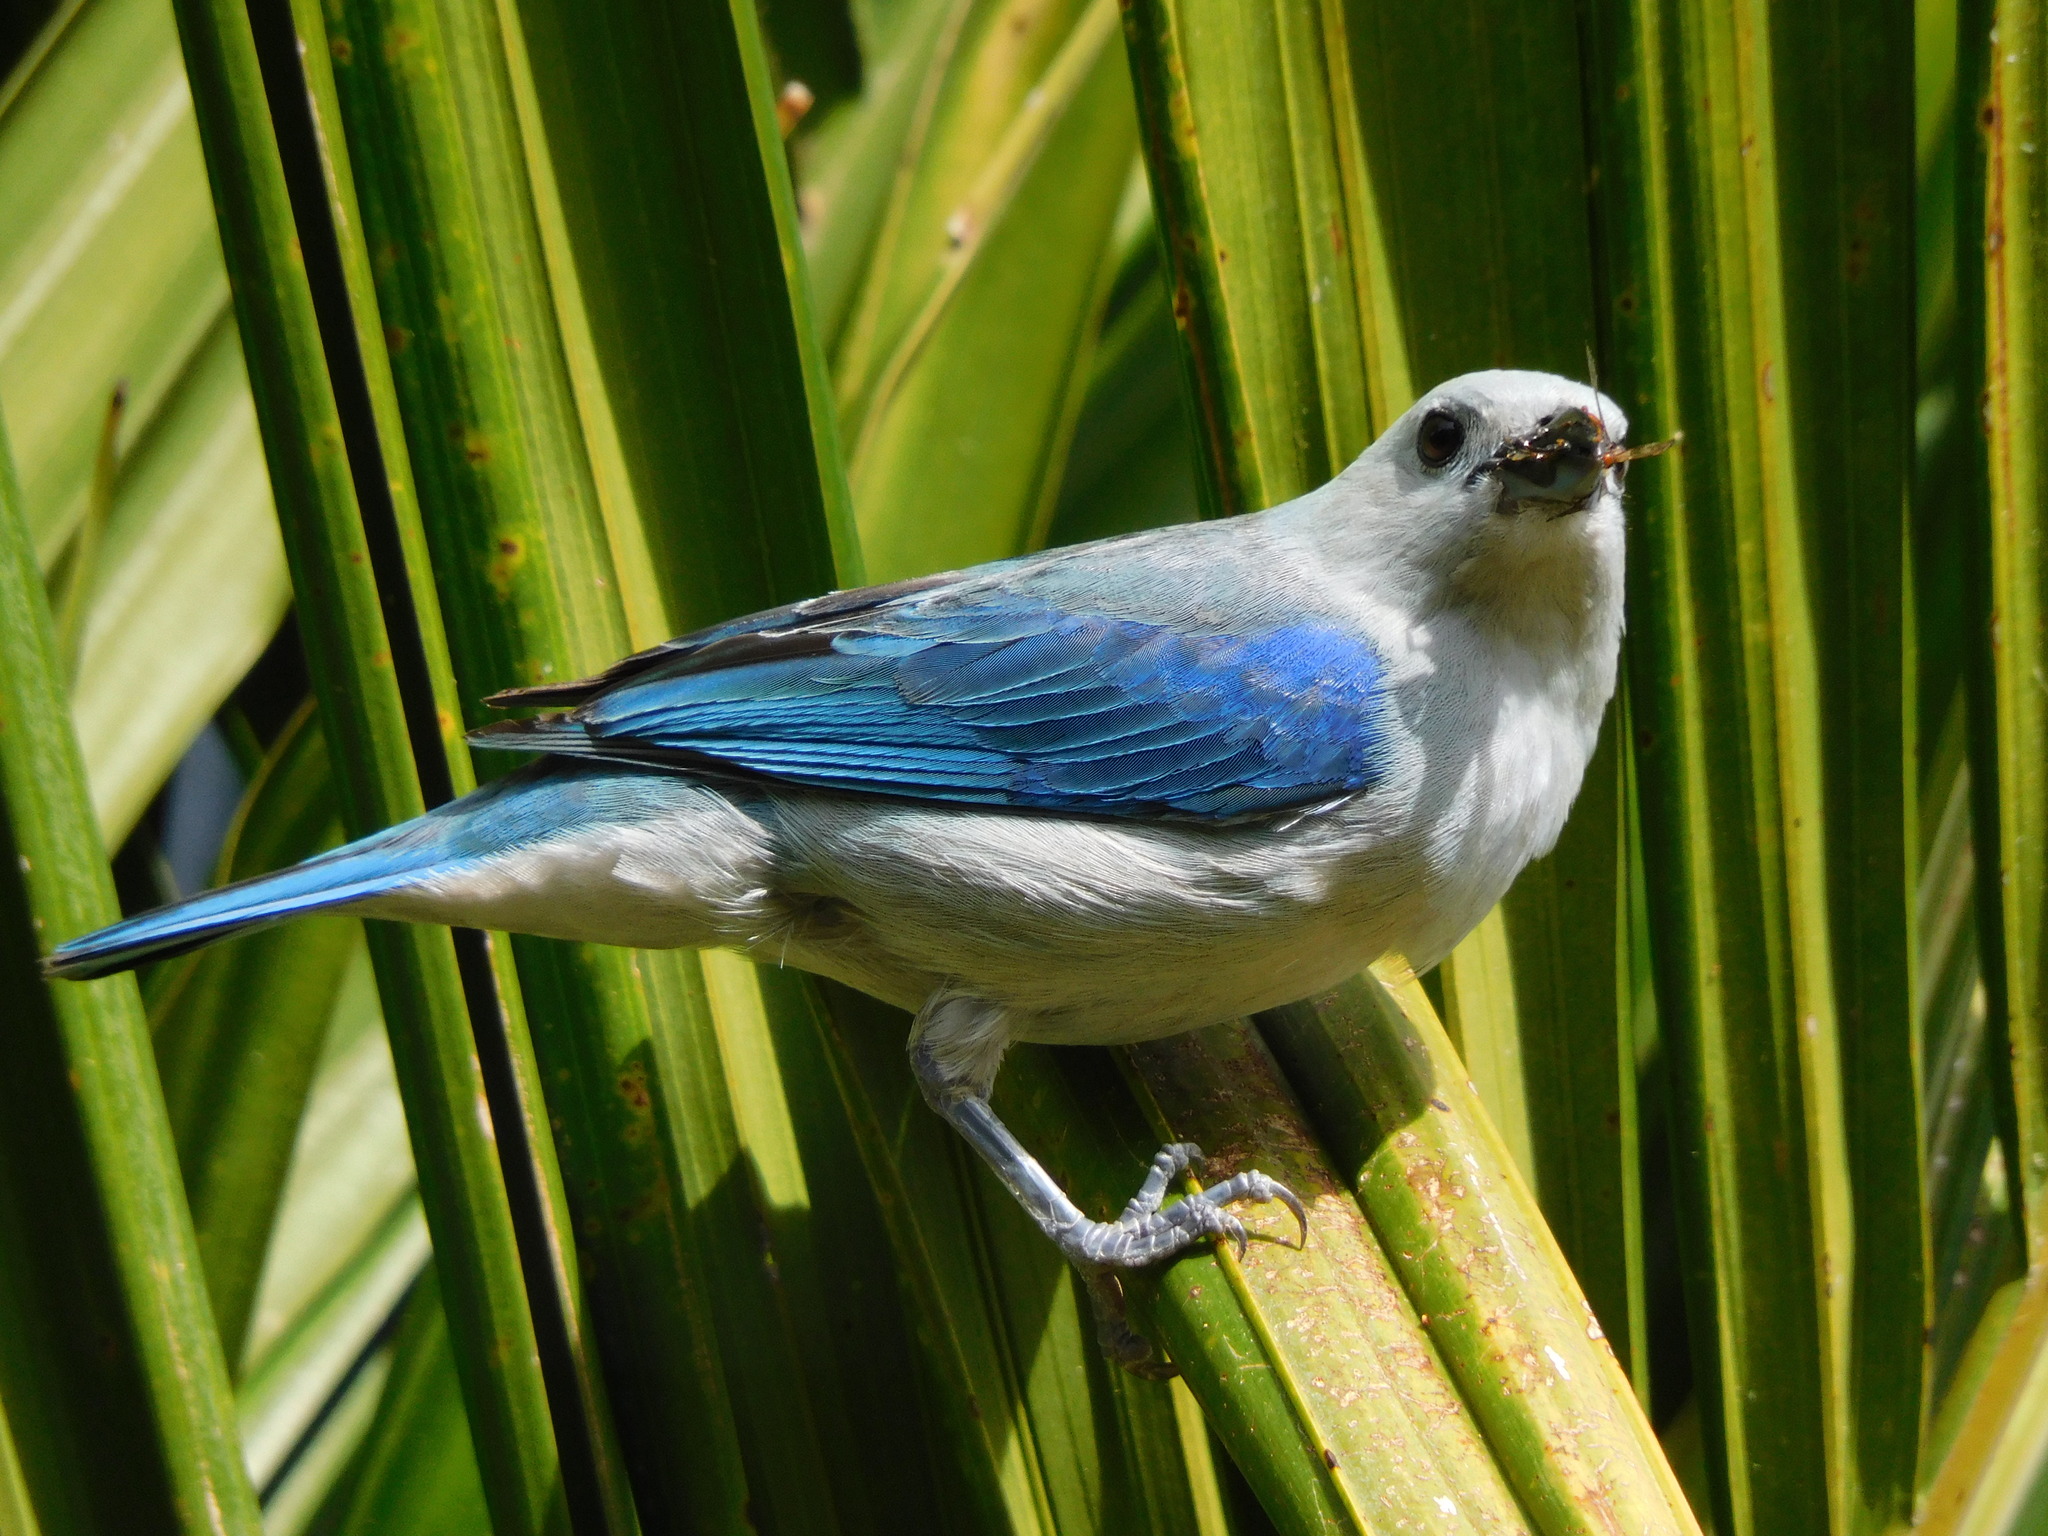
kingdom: Animalia
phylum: Chordata
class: Aves
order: Passeriformes
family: Thraupidae
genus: Thraupis
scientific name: Thraupis episcopus
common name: Blue-grey tanager
